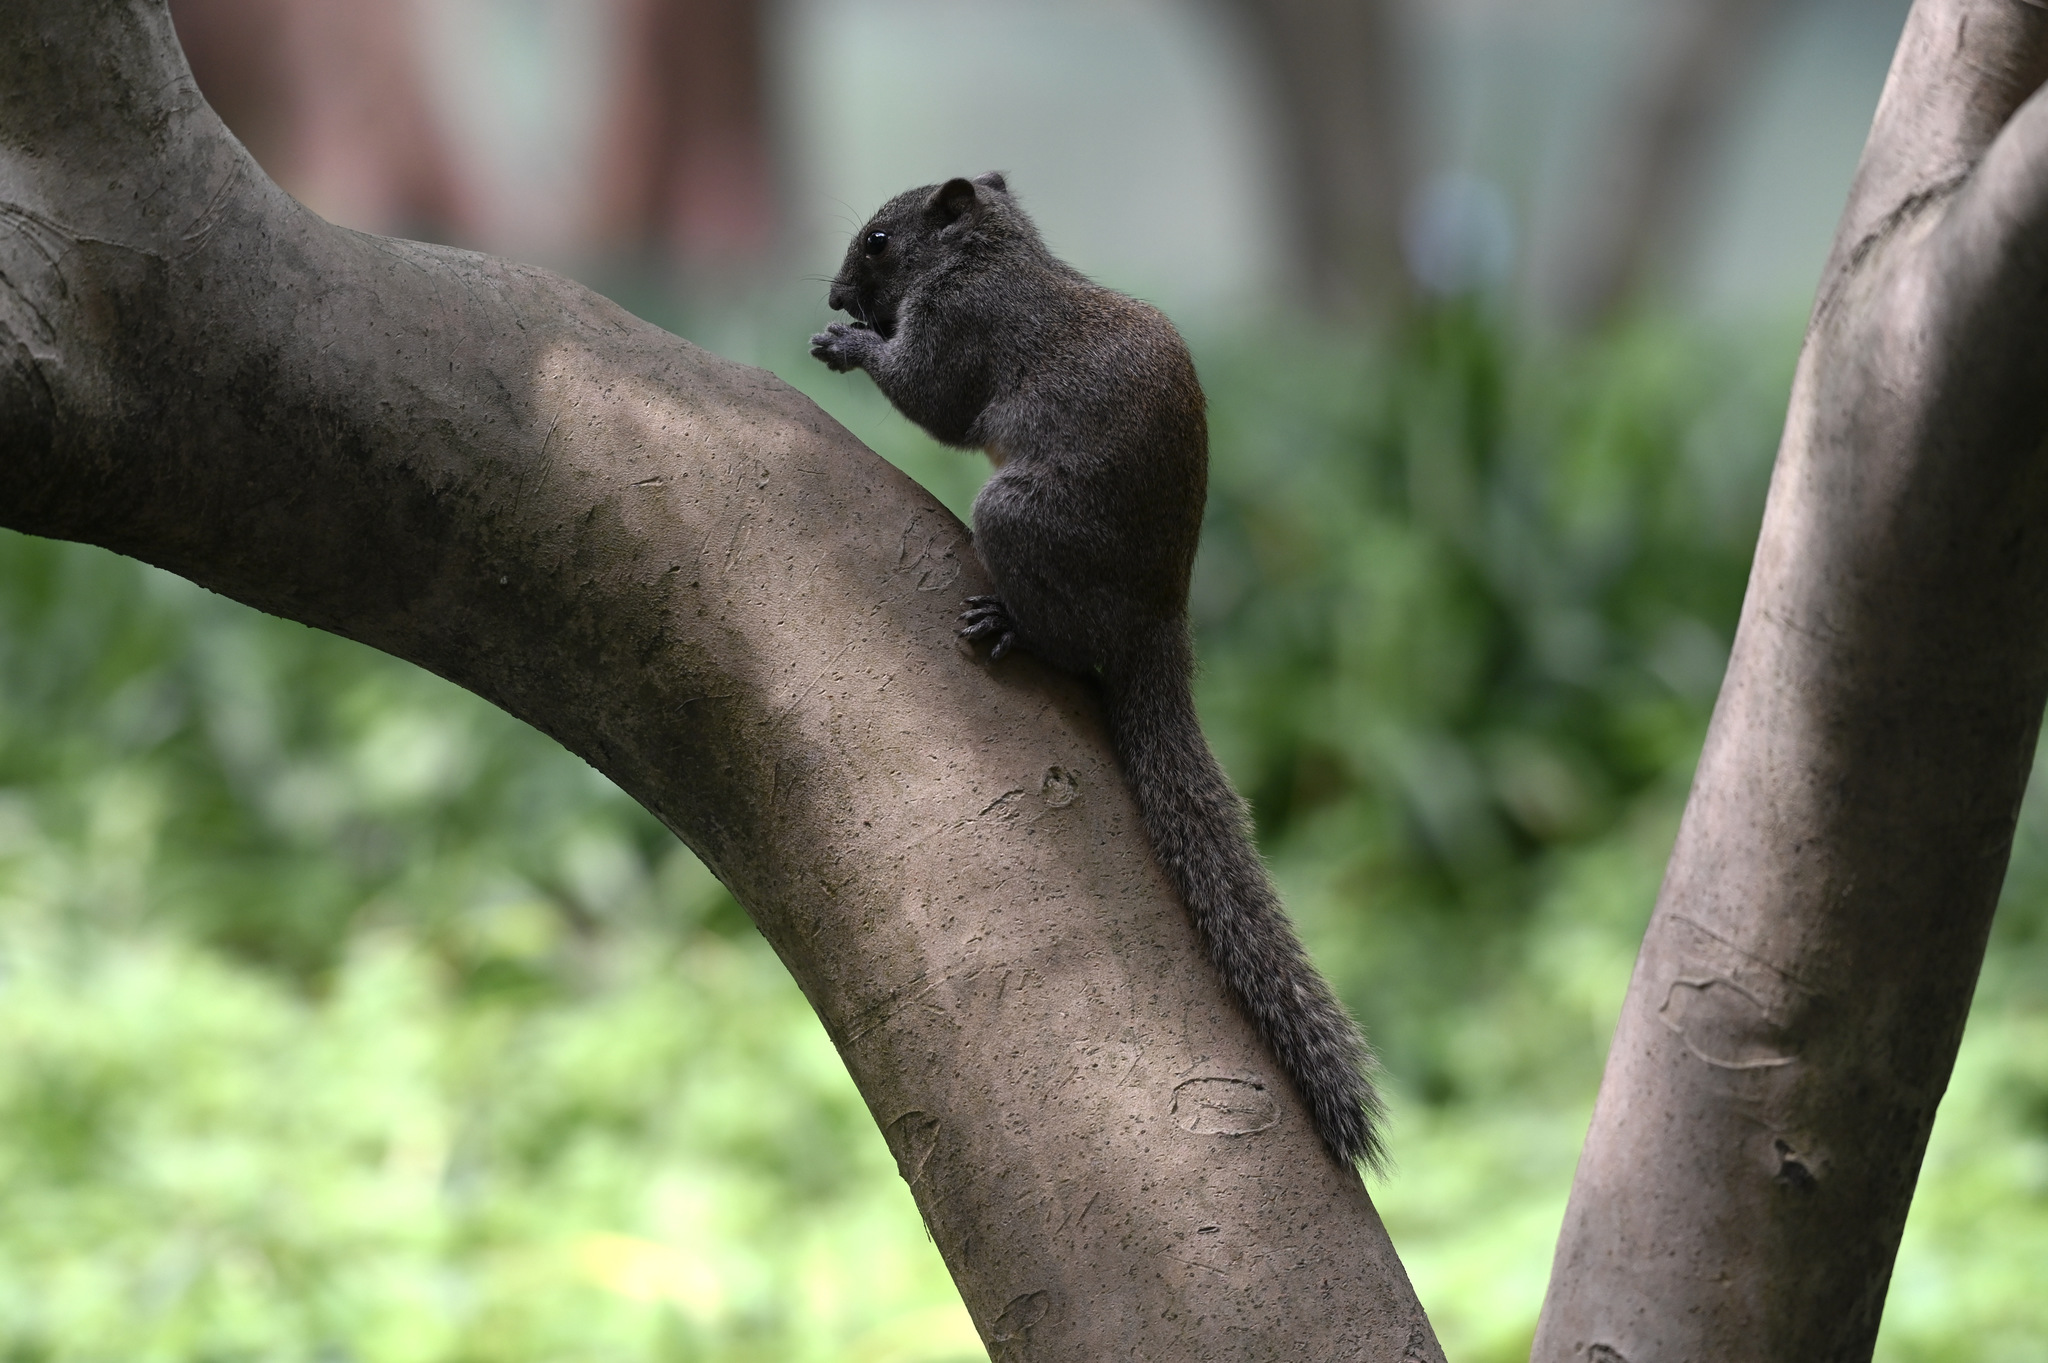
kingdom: Animalia
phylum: Chordata
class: Mammalia
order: Rodentia
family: Sciuridae
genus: Callosciurus
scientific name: Callosciurus erythraeus
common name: Pallas's squirrel
